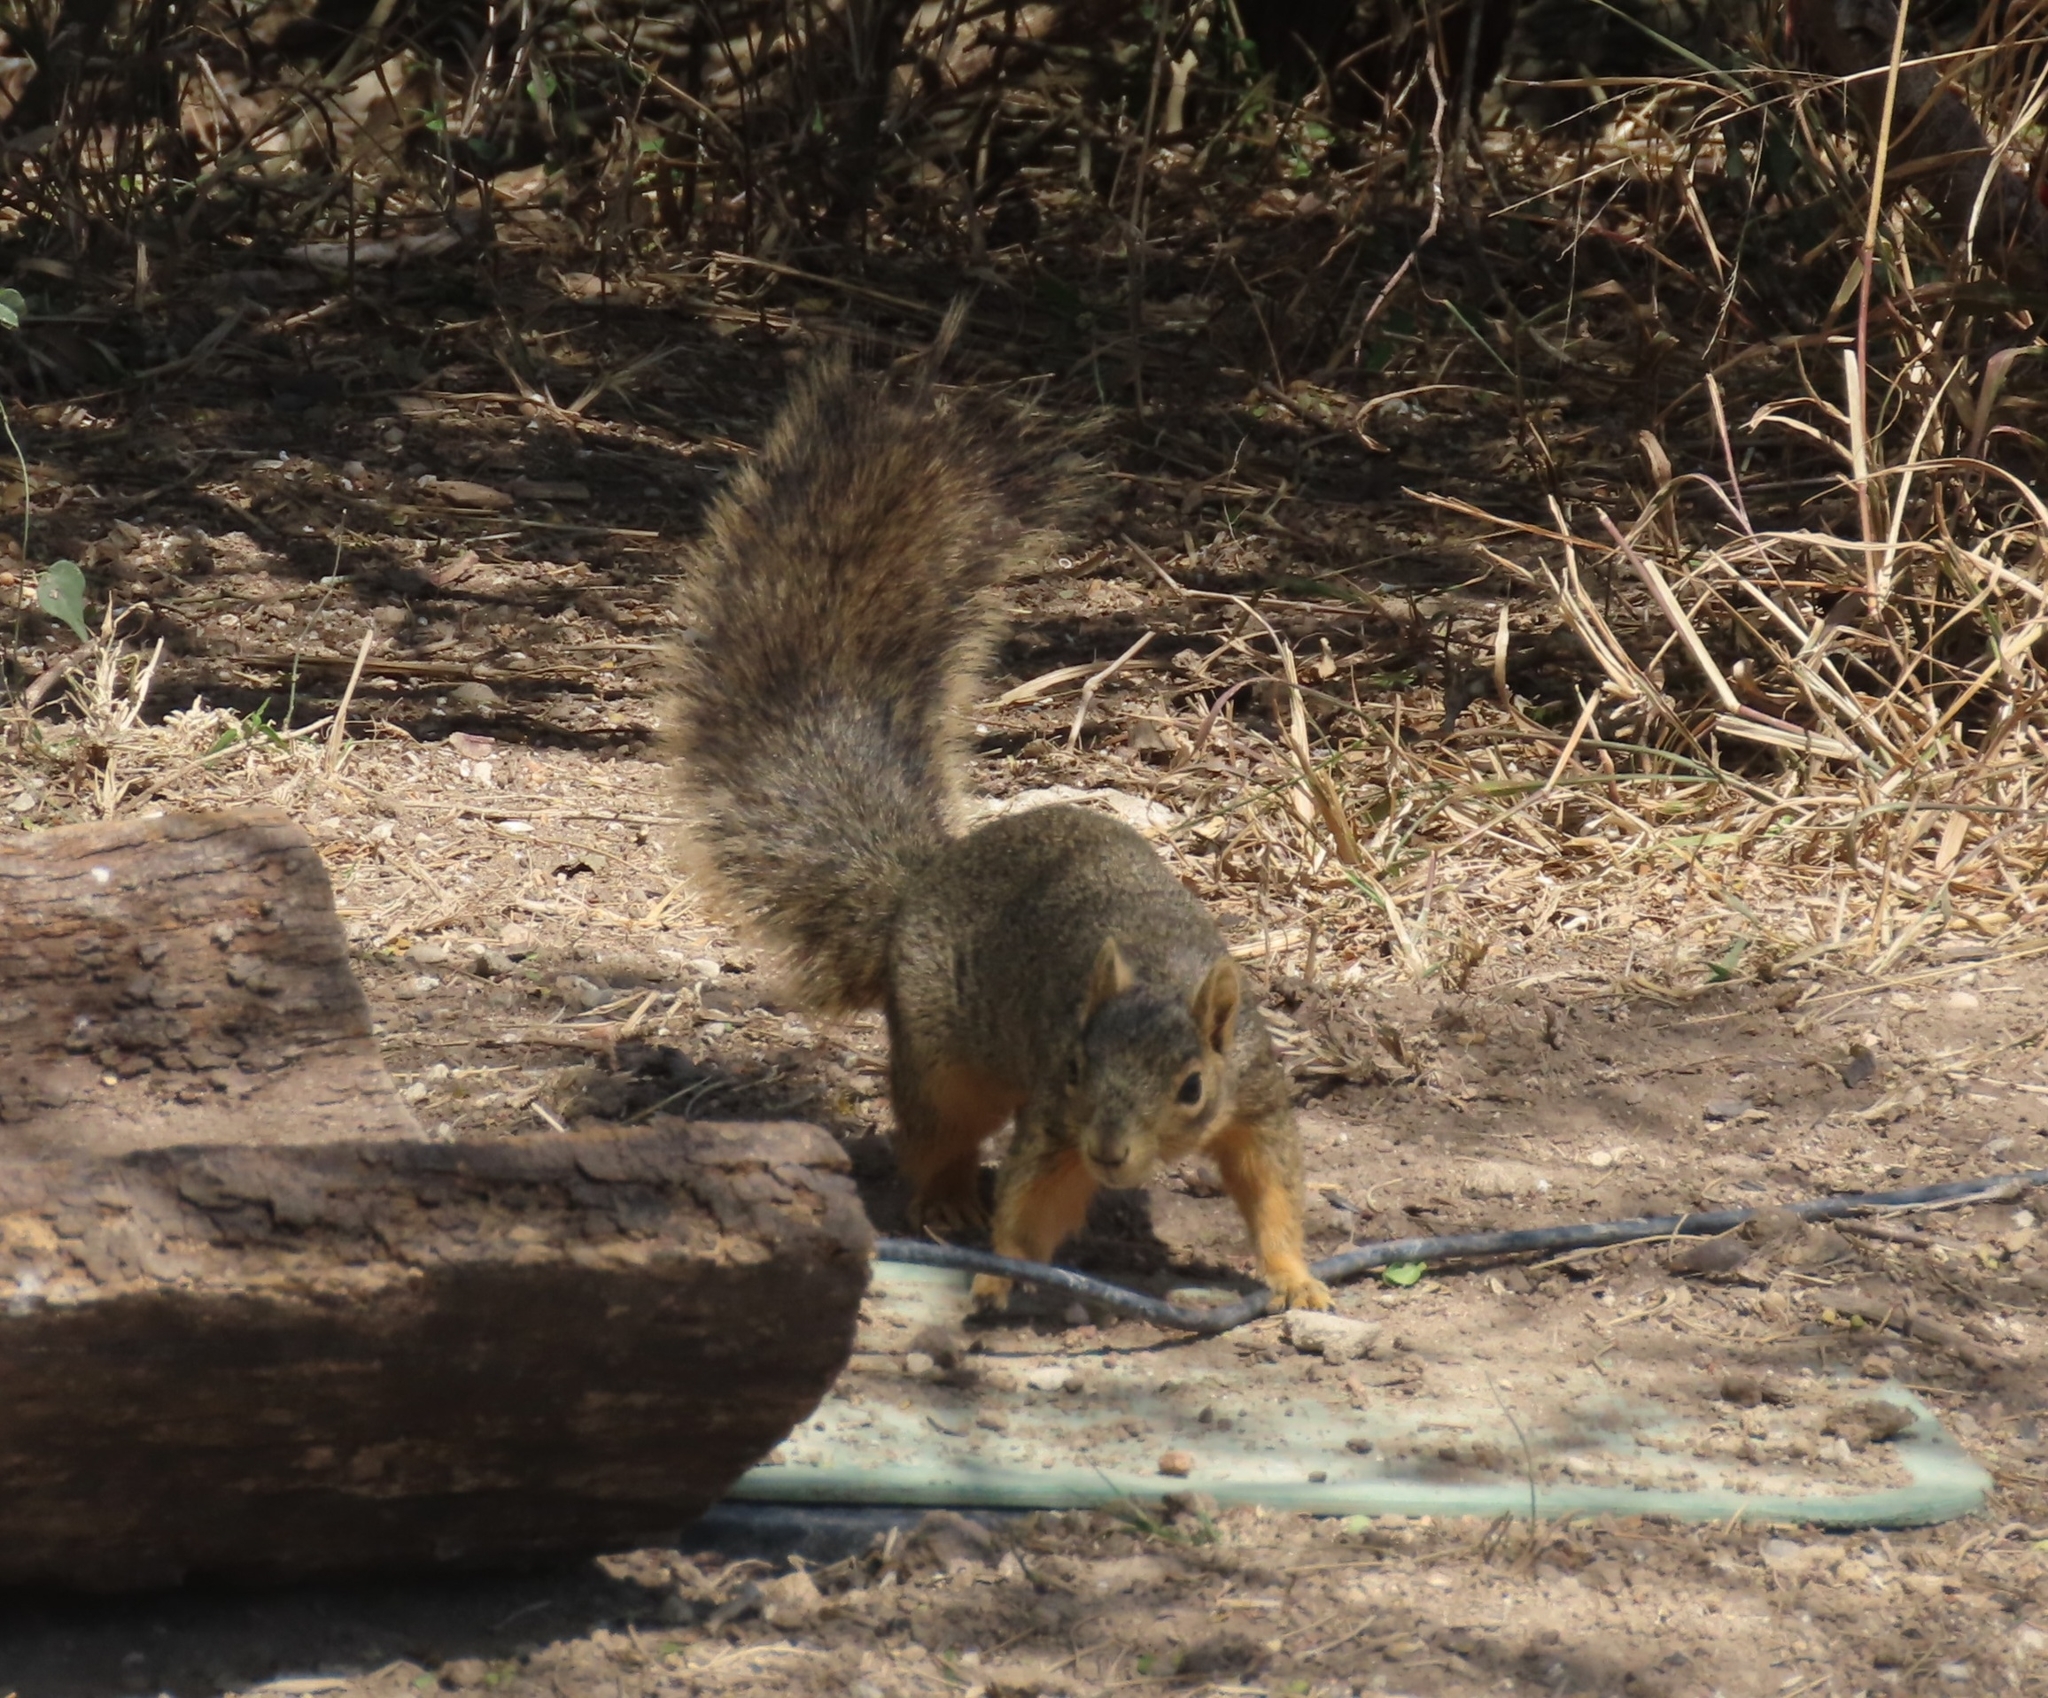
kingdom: Animalia
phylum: Chordata
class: Mammalia
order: Rodentia
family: Sciuridae
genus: Sciurus
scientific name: Sciurus niger
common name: Fox squirrel
